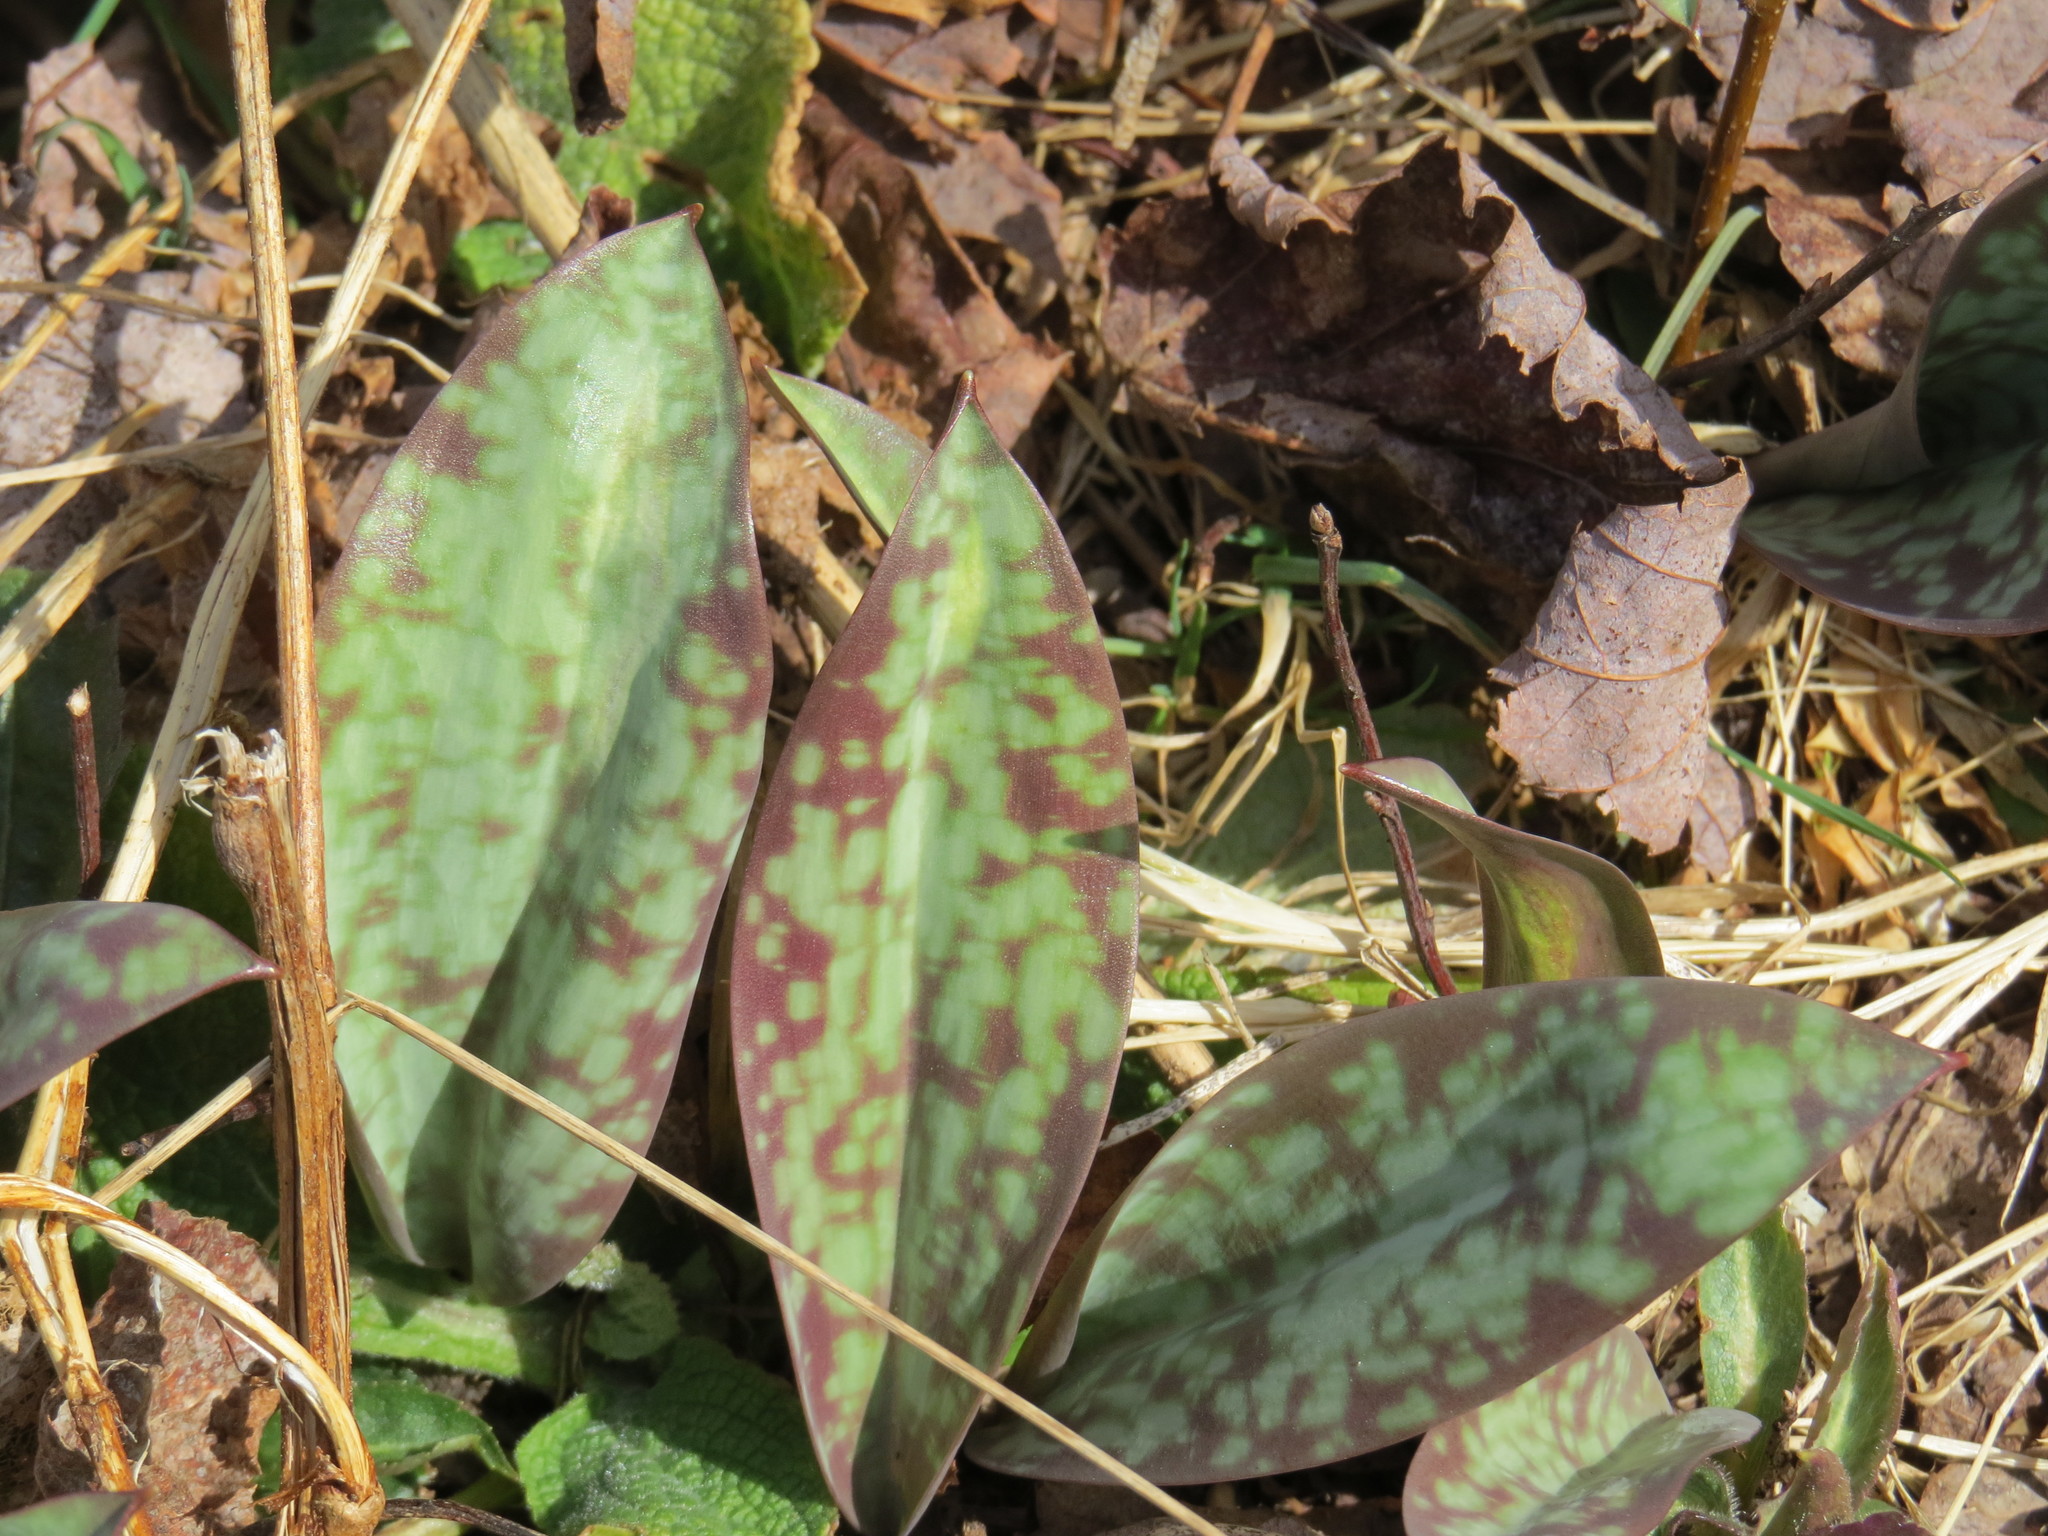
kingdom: Plantae
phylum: Tracheophyta
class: Liliopsida
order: Liliales
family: Liliaceae
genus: Erythronium
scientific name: Erythronium americanum
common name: Yellow adder's-tongue
